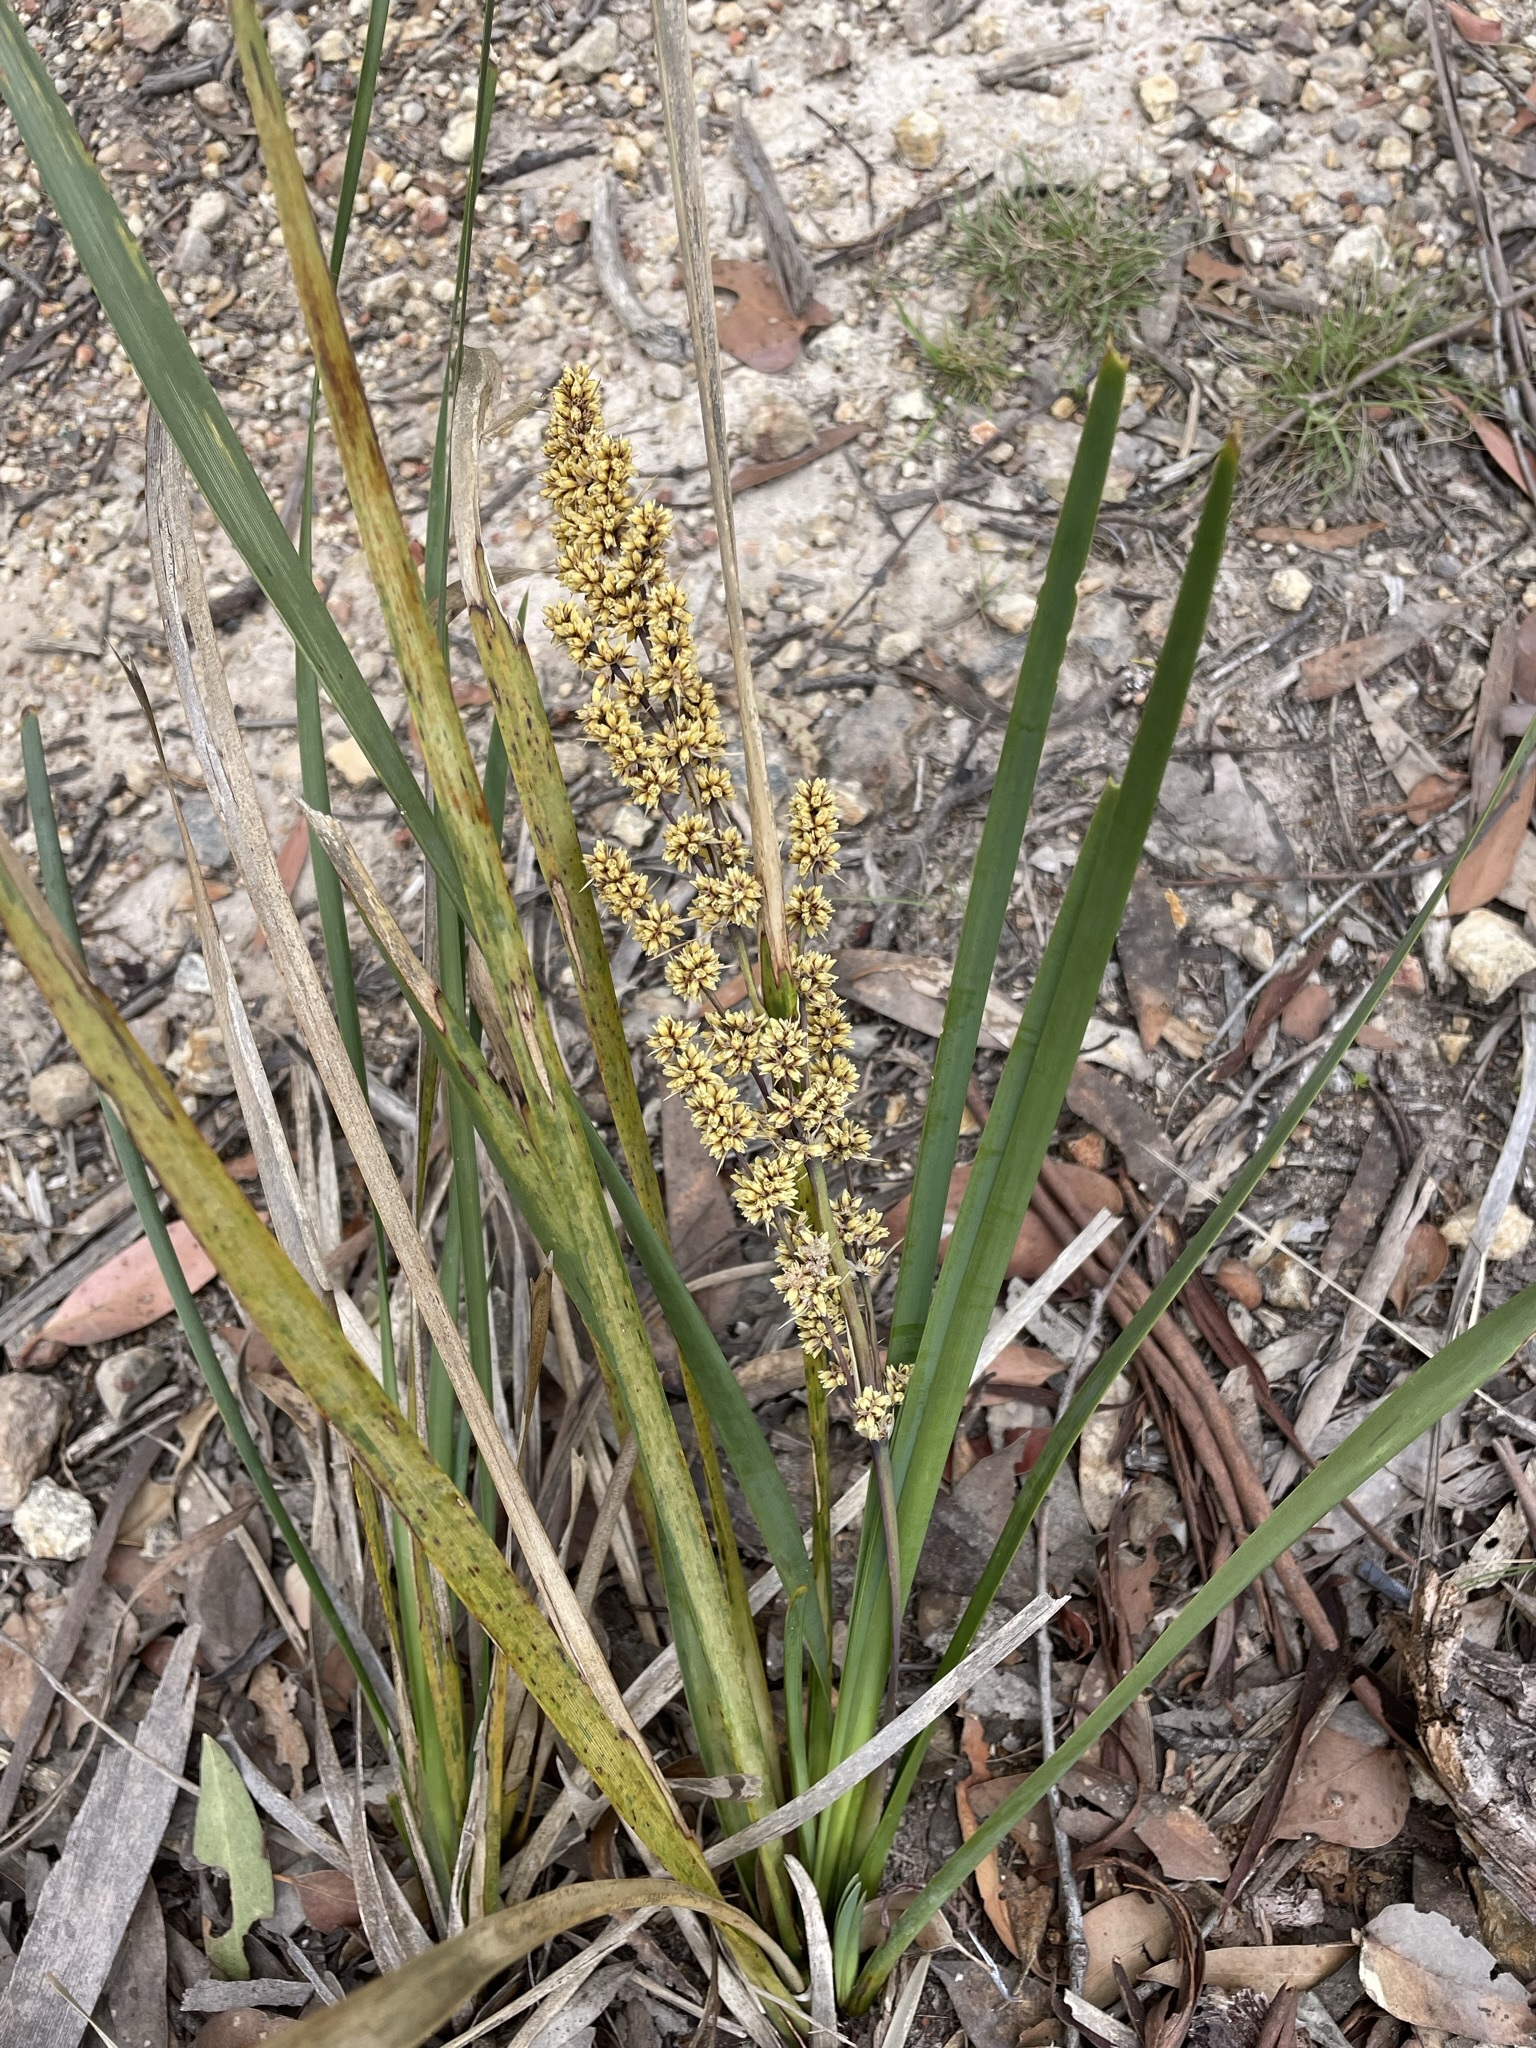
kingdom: Plantae
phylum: Tracheophyta
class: Liliopsida
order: Asparagales
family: Asparagaceae
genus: Lomandra
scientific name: Lomandra longifolia
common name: Longleaf mat-rush
